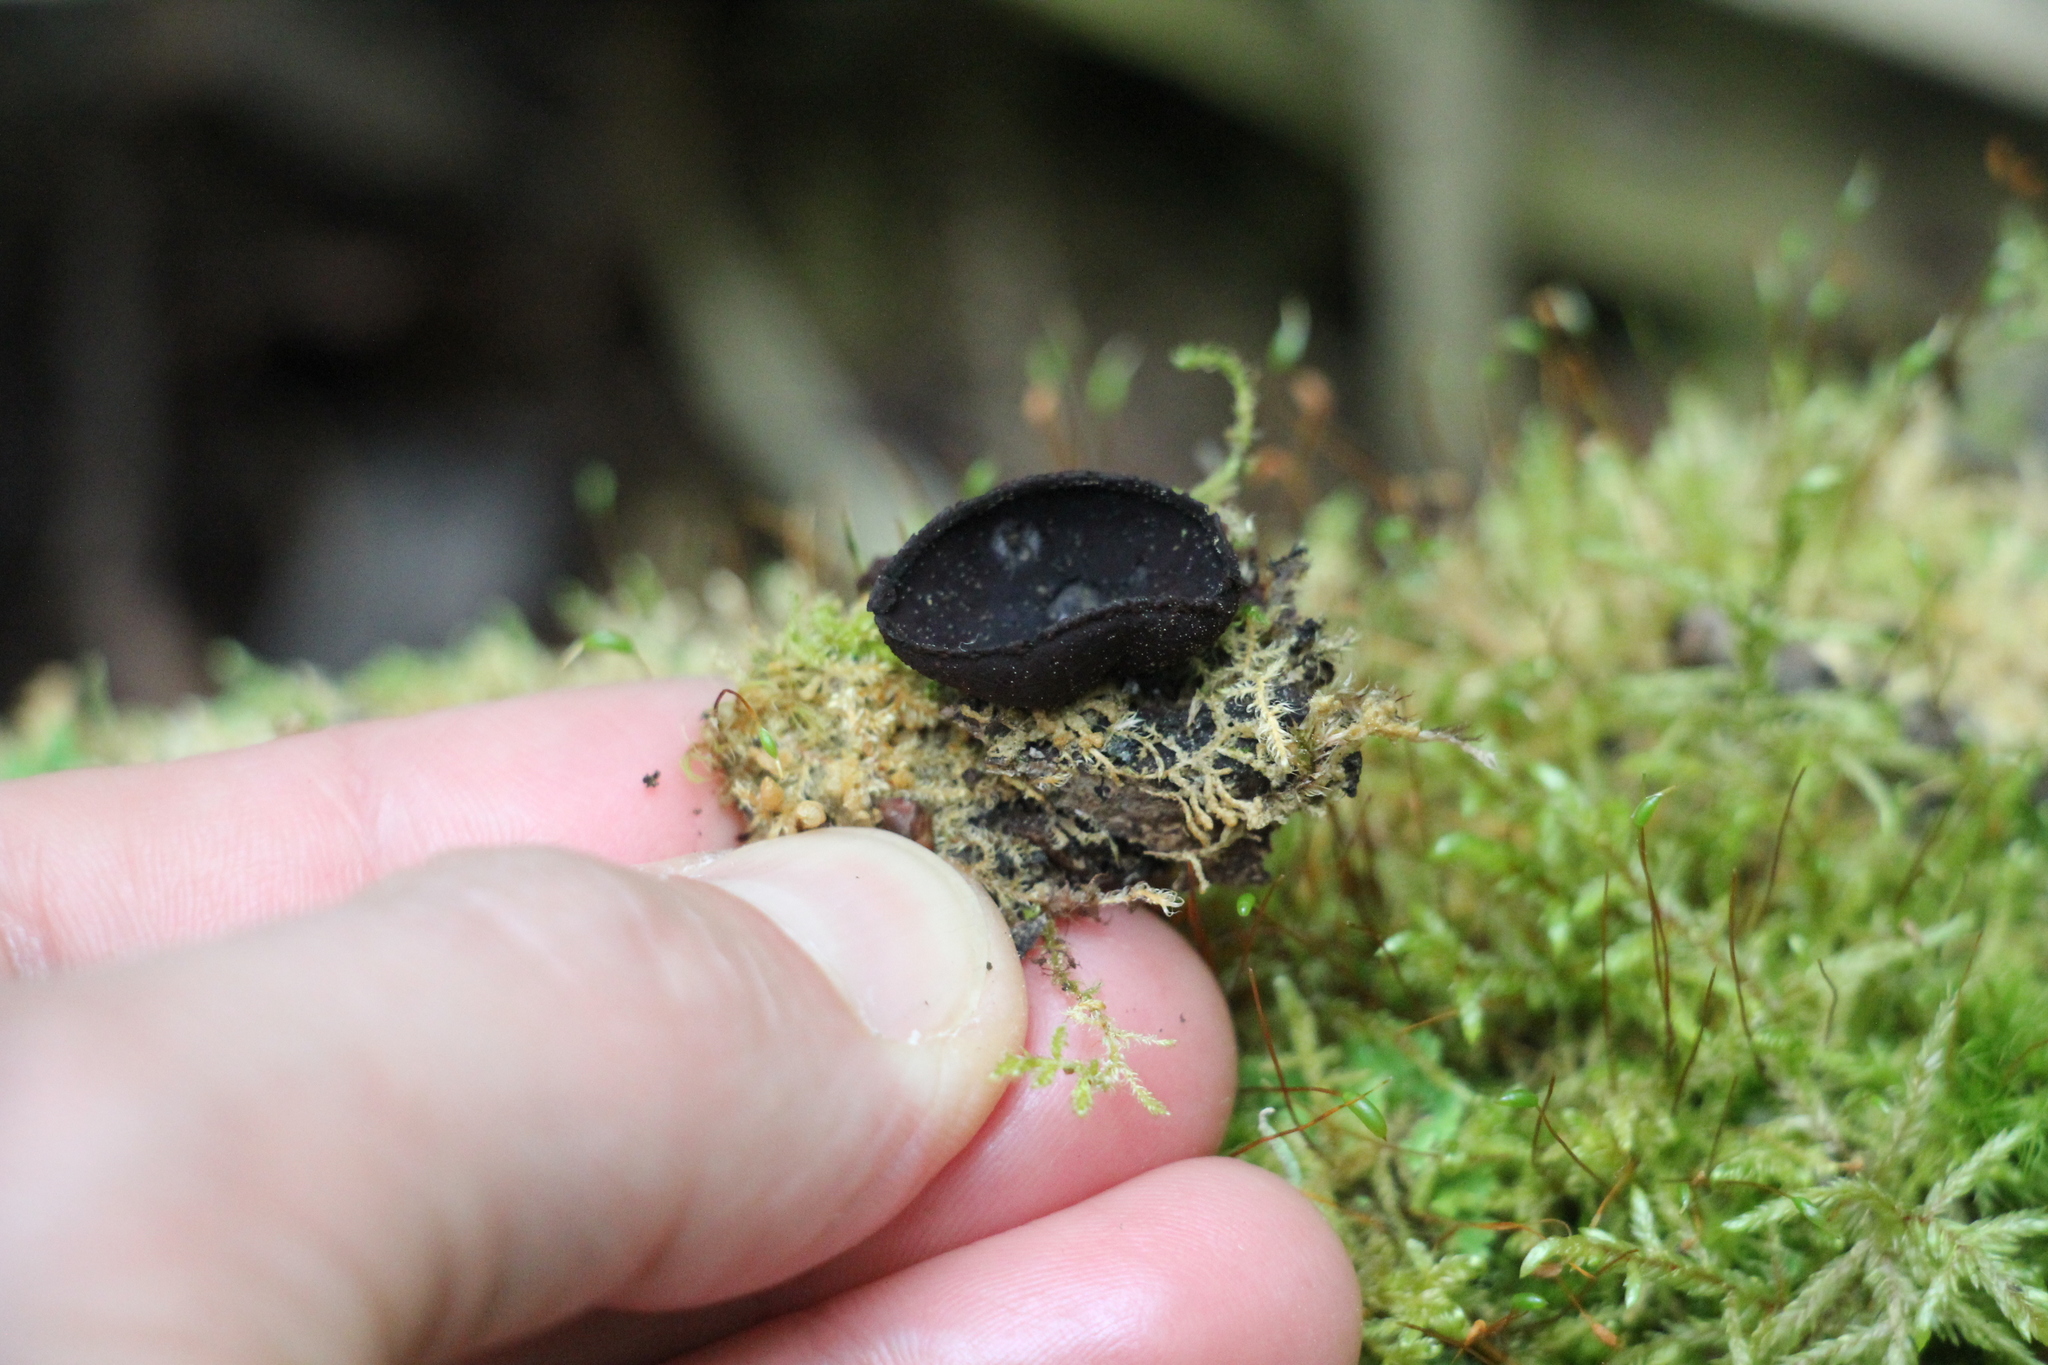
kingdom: Fungi
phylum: Ascomycota
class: Pezizomycetes
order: Pezizales
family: Sarcosomataceae
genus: Plectania
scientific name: Plectania melastoma
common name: Corona cup
